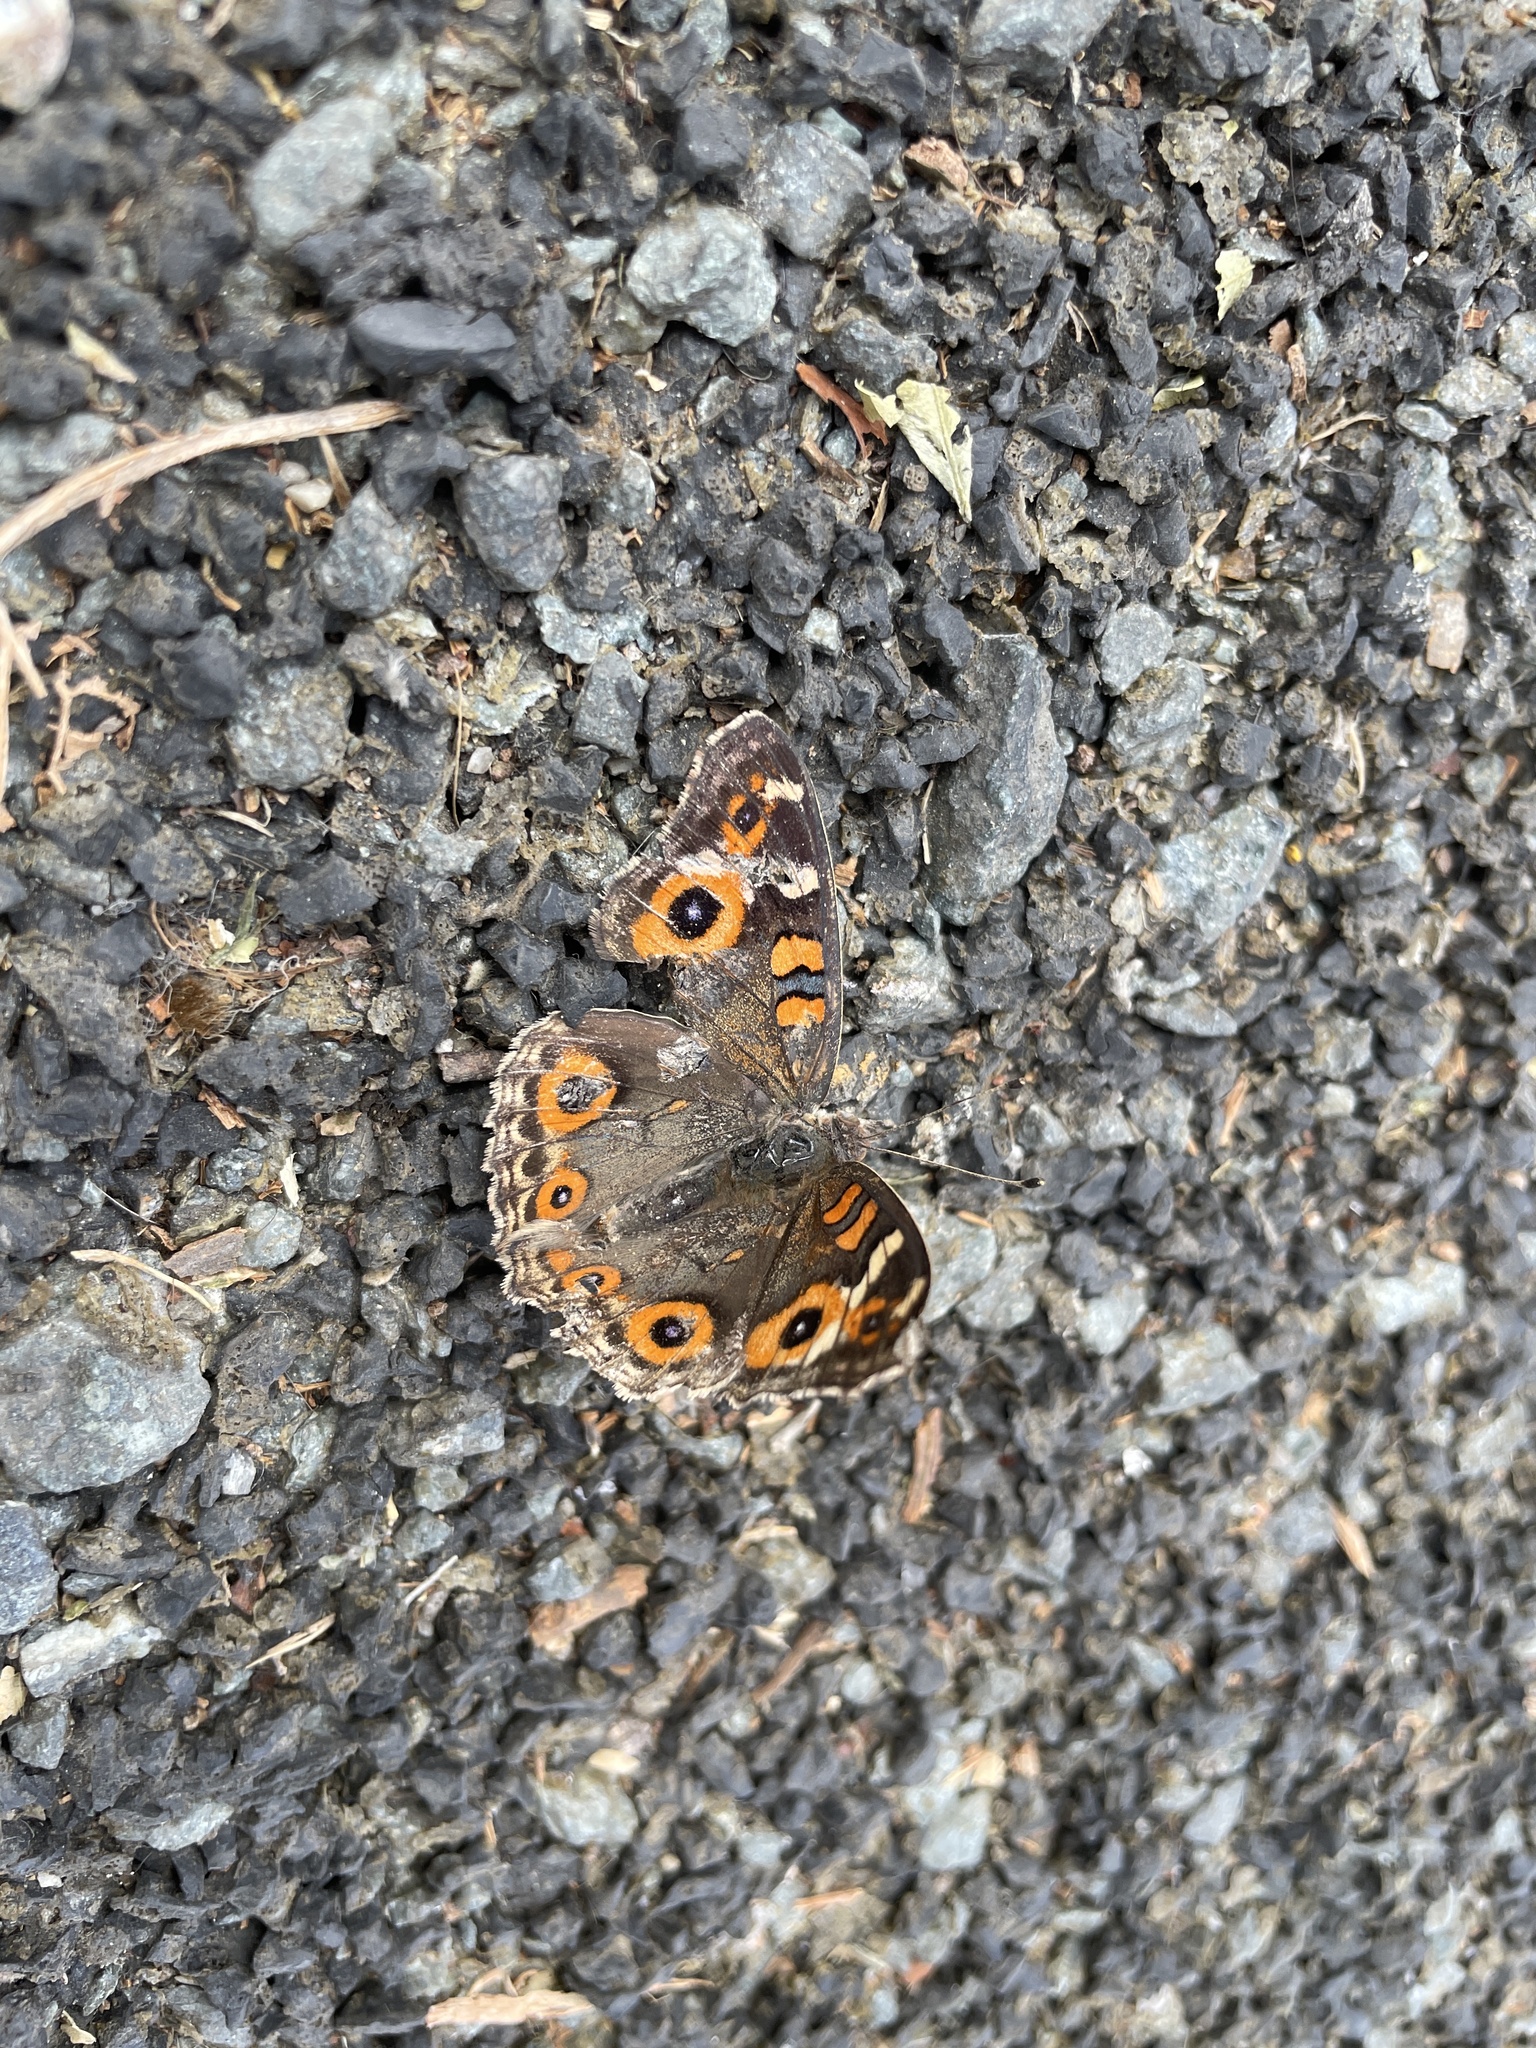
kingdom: Animalia
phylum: Arthropoda
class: Insecta
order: Lepidoptera
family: Nymphalidae
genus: Junonia
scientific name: Junonia villida
